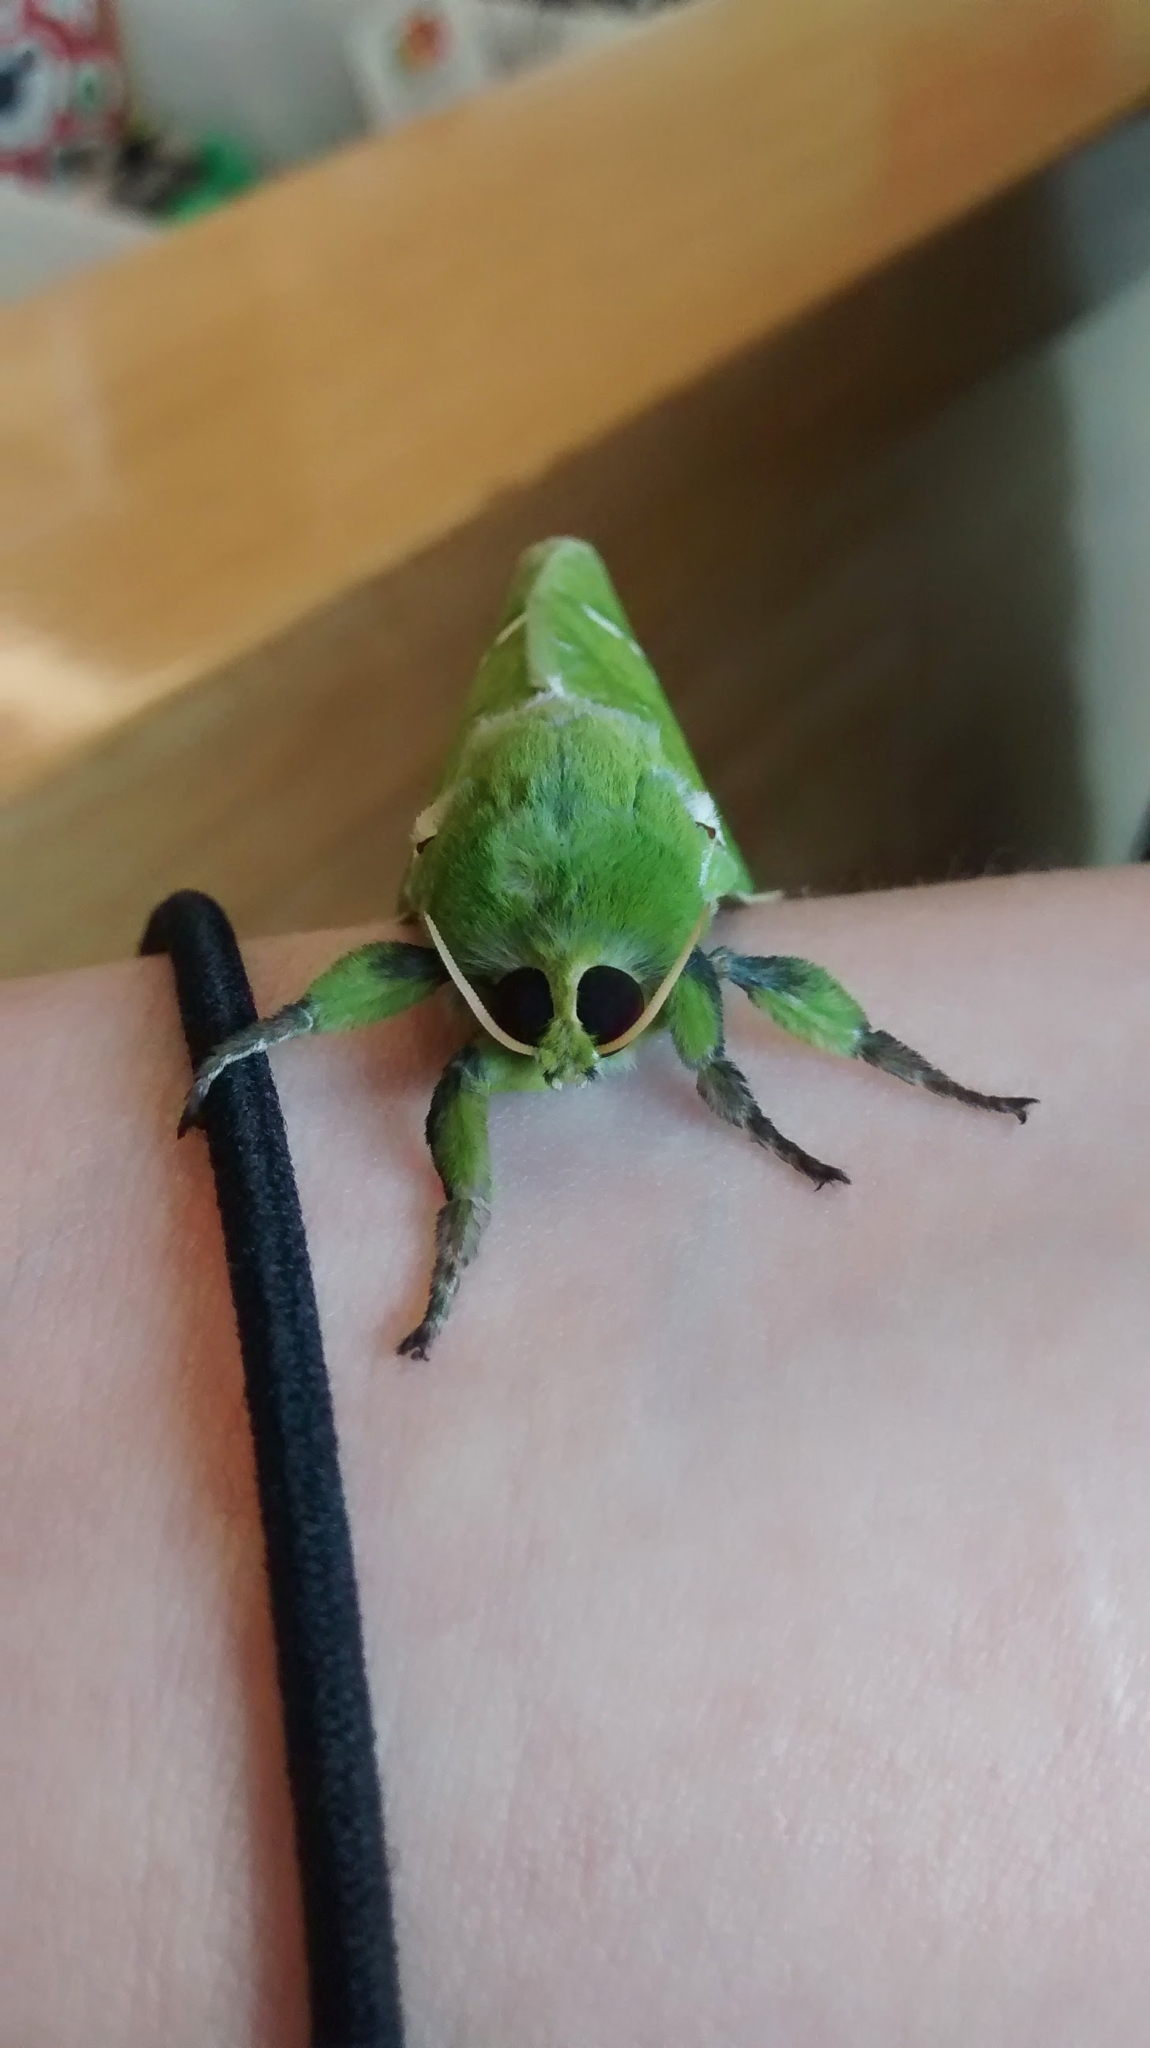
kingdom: Animalia
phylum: Arthropoda
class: Insecta
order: Lepidoptera
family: Hepialidae
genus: Aenetus
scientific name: Aenetus virescens
